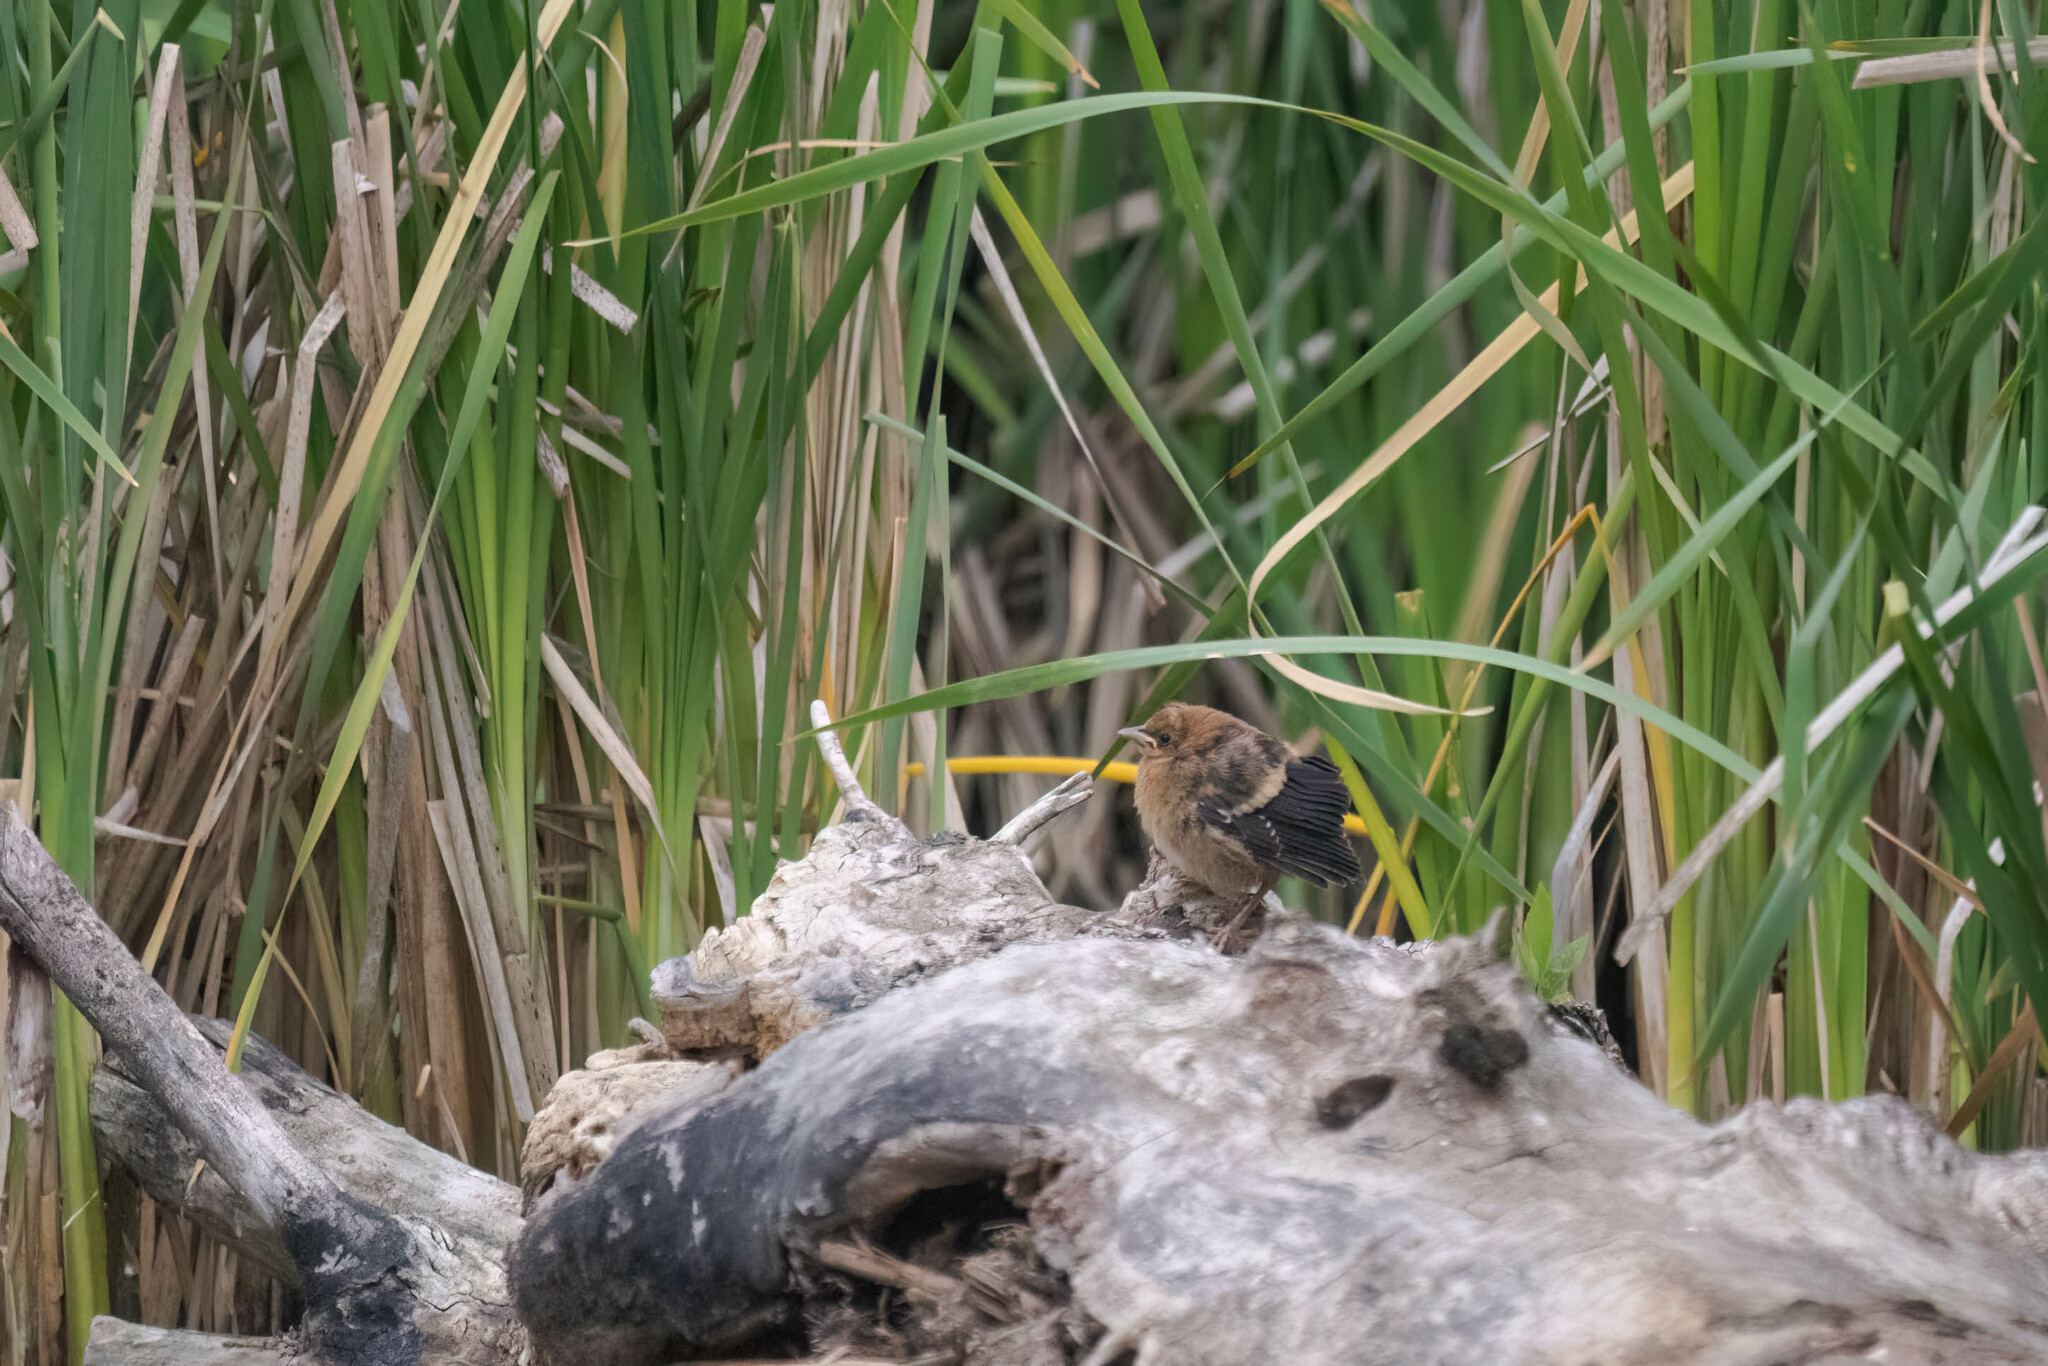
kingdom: Animalia
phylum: Chordata
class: Aves
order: Passeriformes
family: Icteridae
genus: Xanthocephalus
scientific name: Xanthocephalus xanthocephalus
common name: Yellow-headed blackbird
